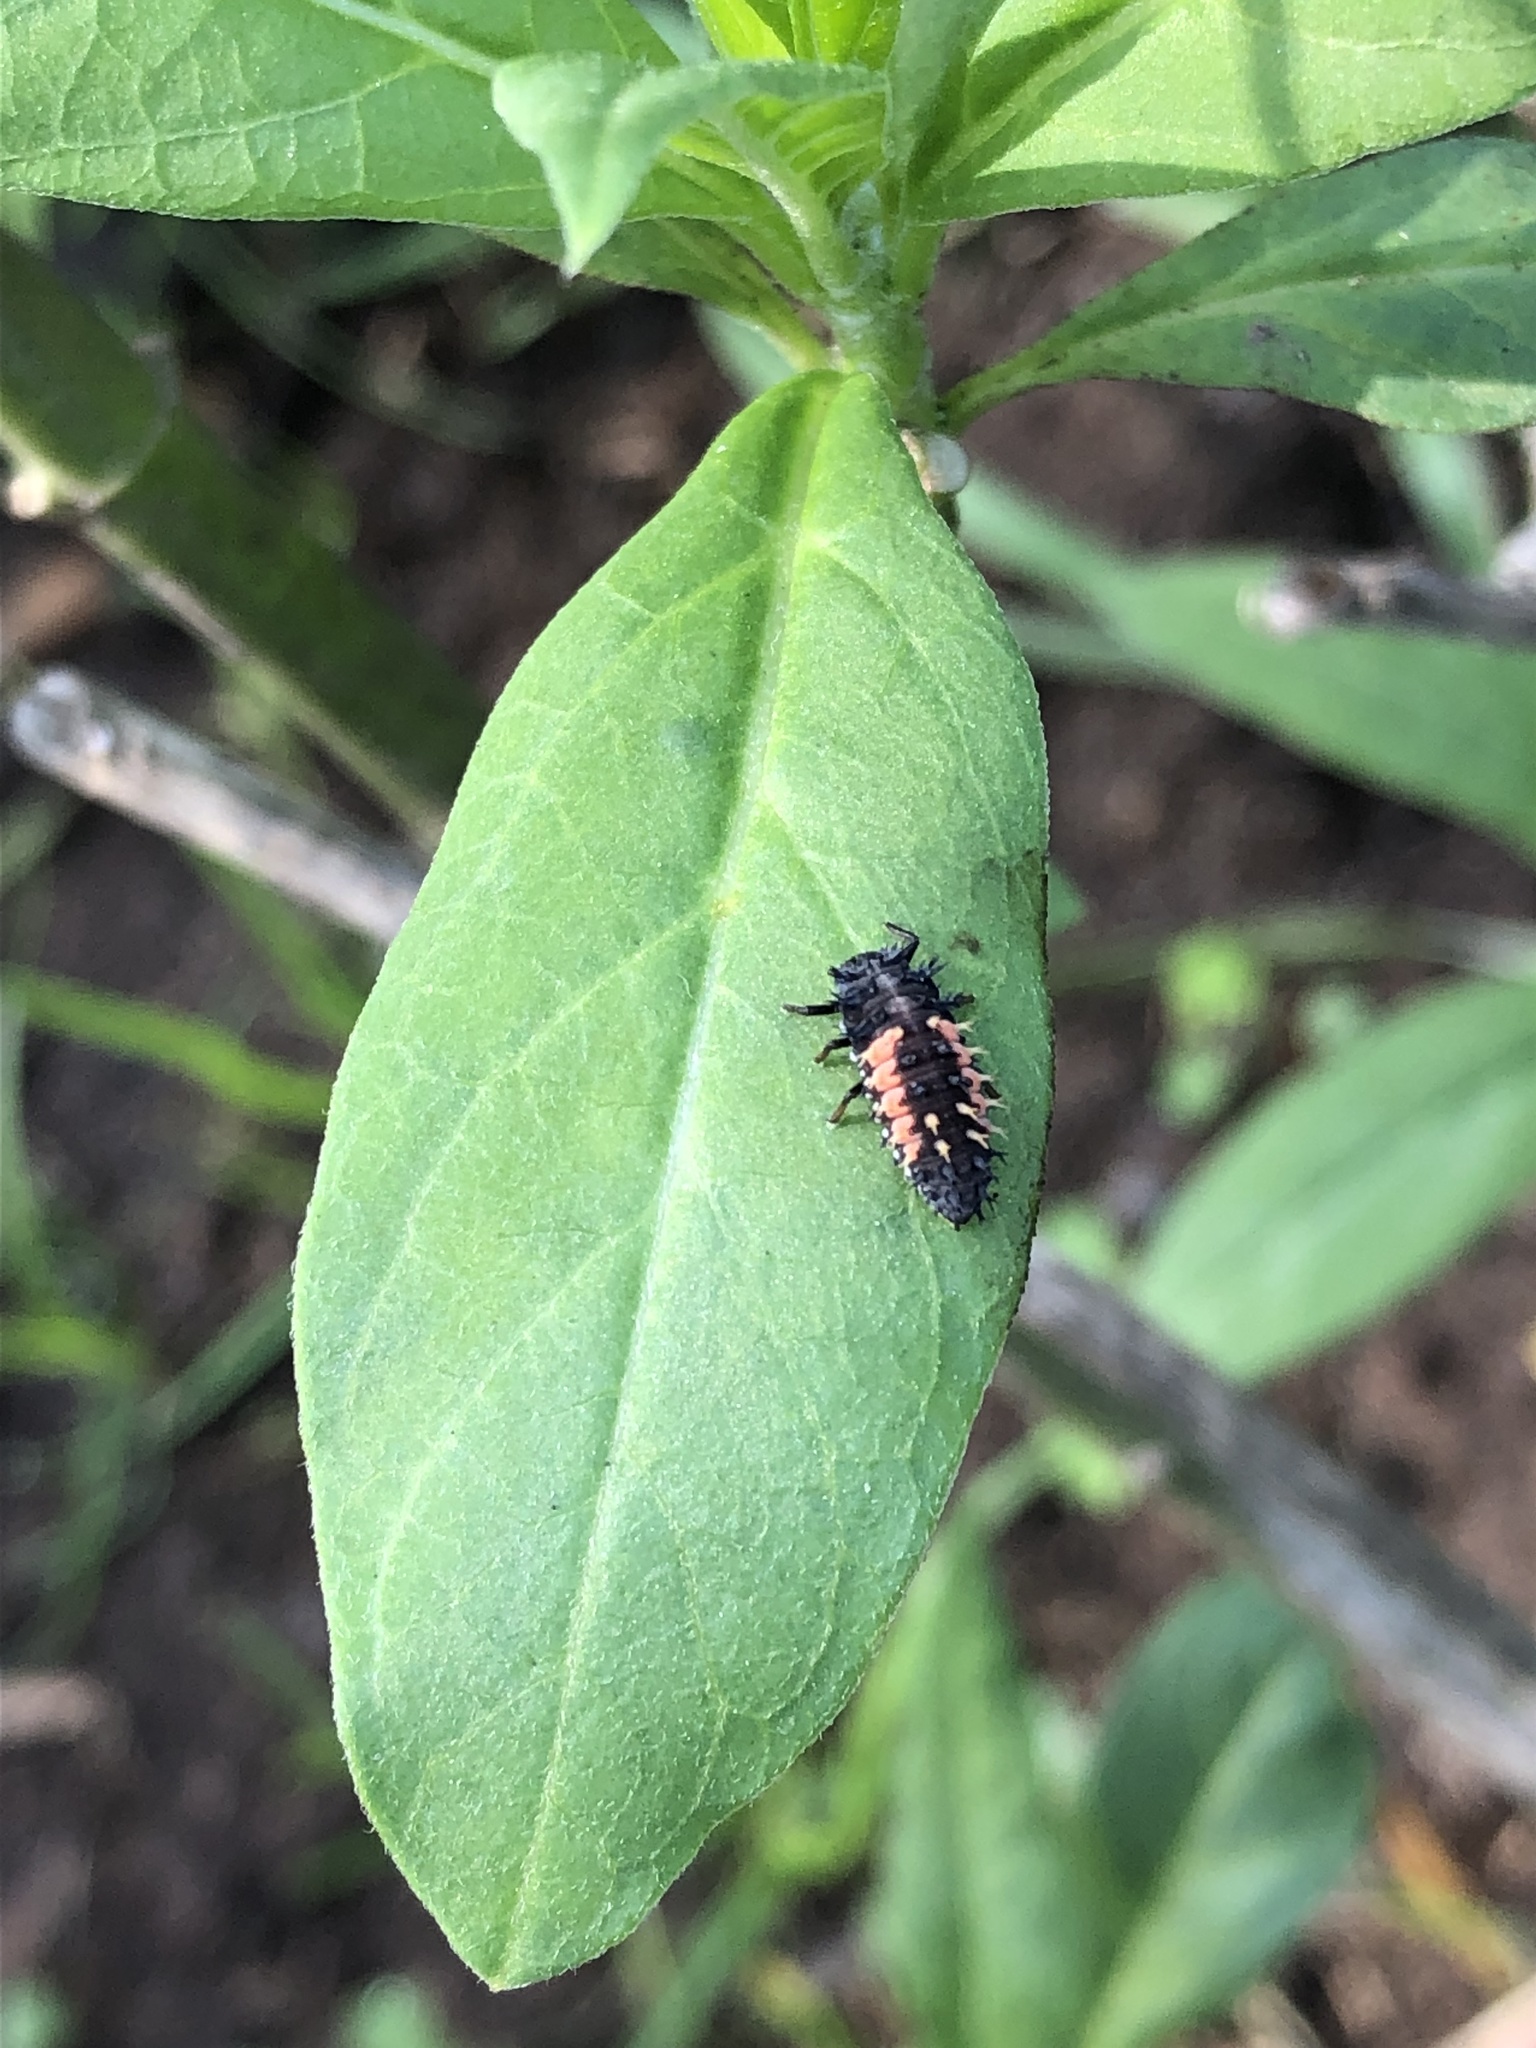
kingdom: Animalia
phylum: Arthropoda
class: Insecta
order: Coleoptera
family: Coccinellidae
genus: Harmonia
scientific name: Harmonia axyridis
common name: Harlequin ladybird
